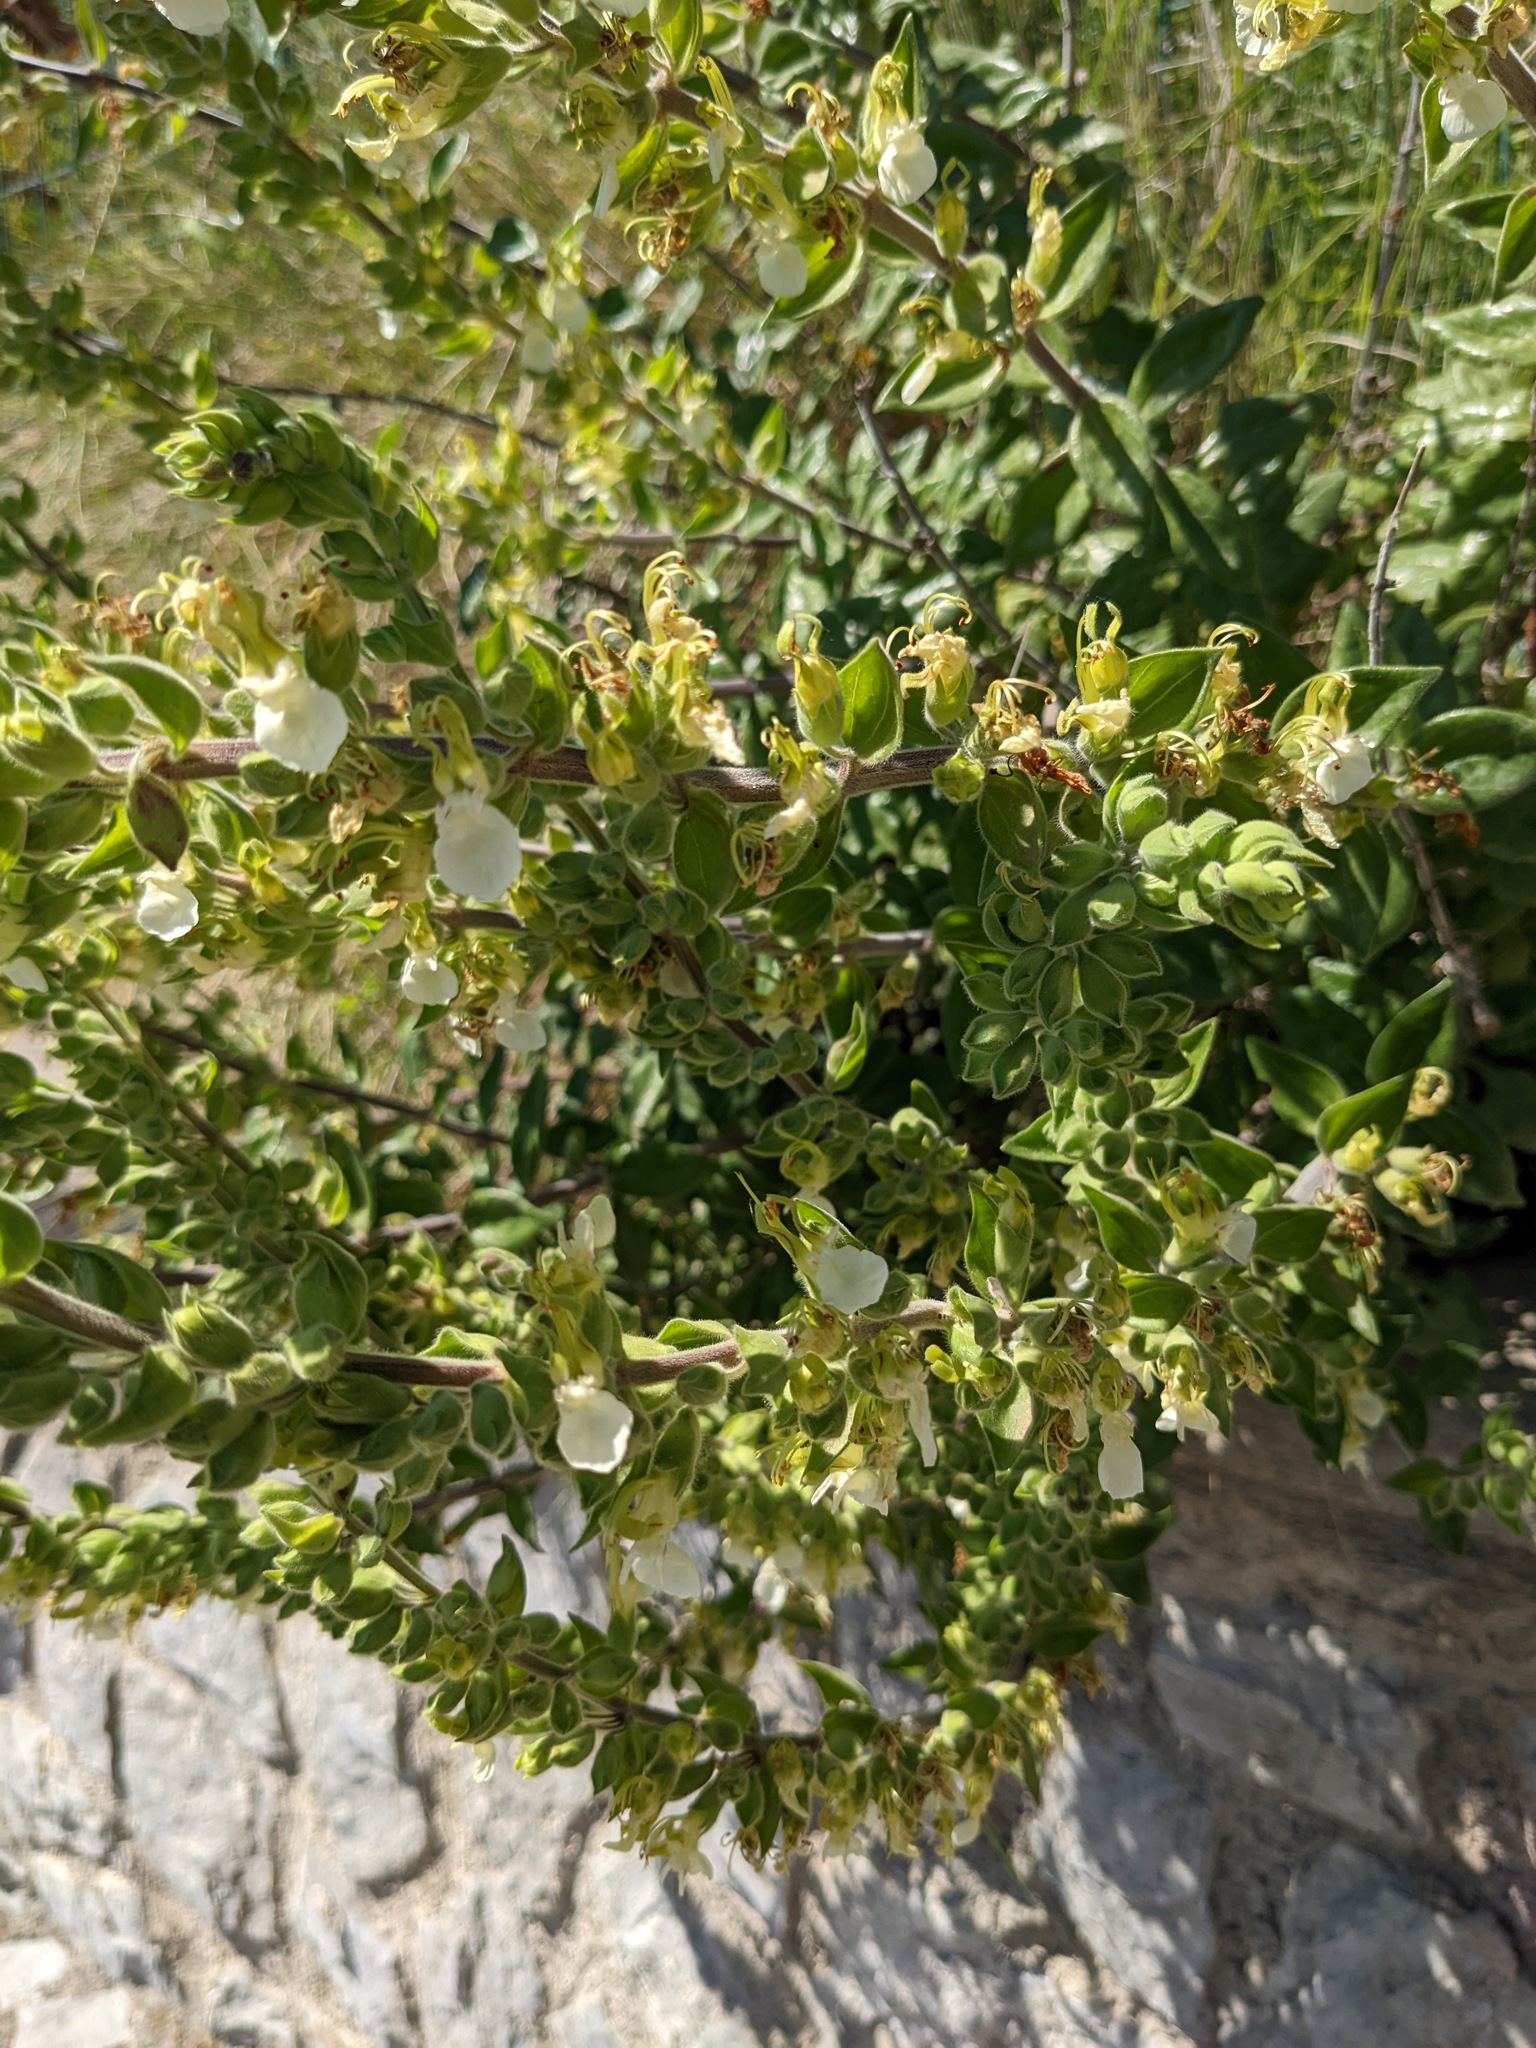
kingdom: Plantae
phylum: Tracheophyta
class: Magnoliopsida
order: Lamiales
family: Lamiaceae
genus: Teucrium
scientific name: Teucrium flavum
